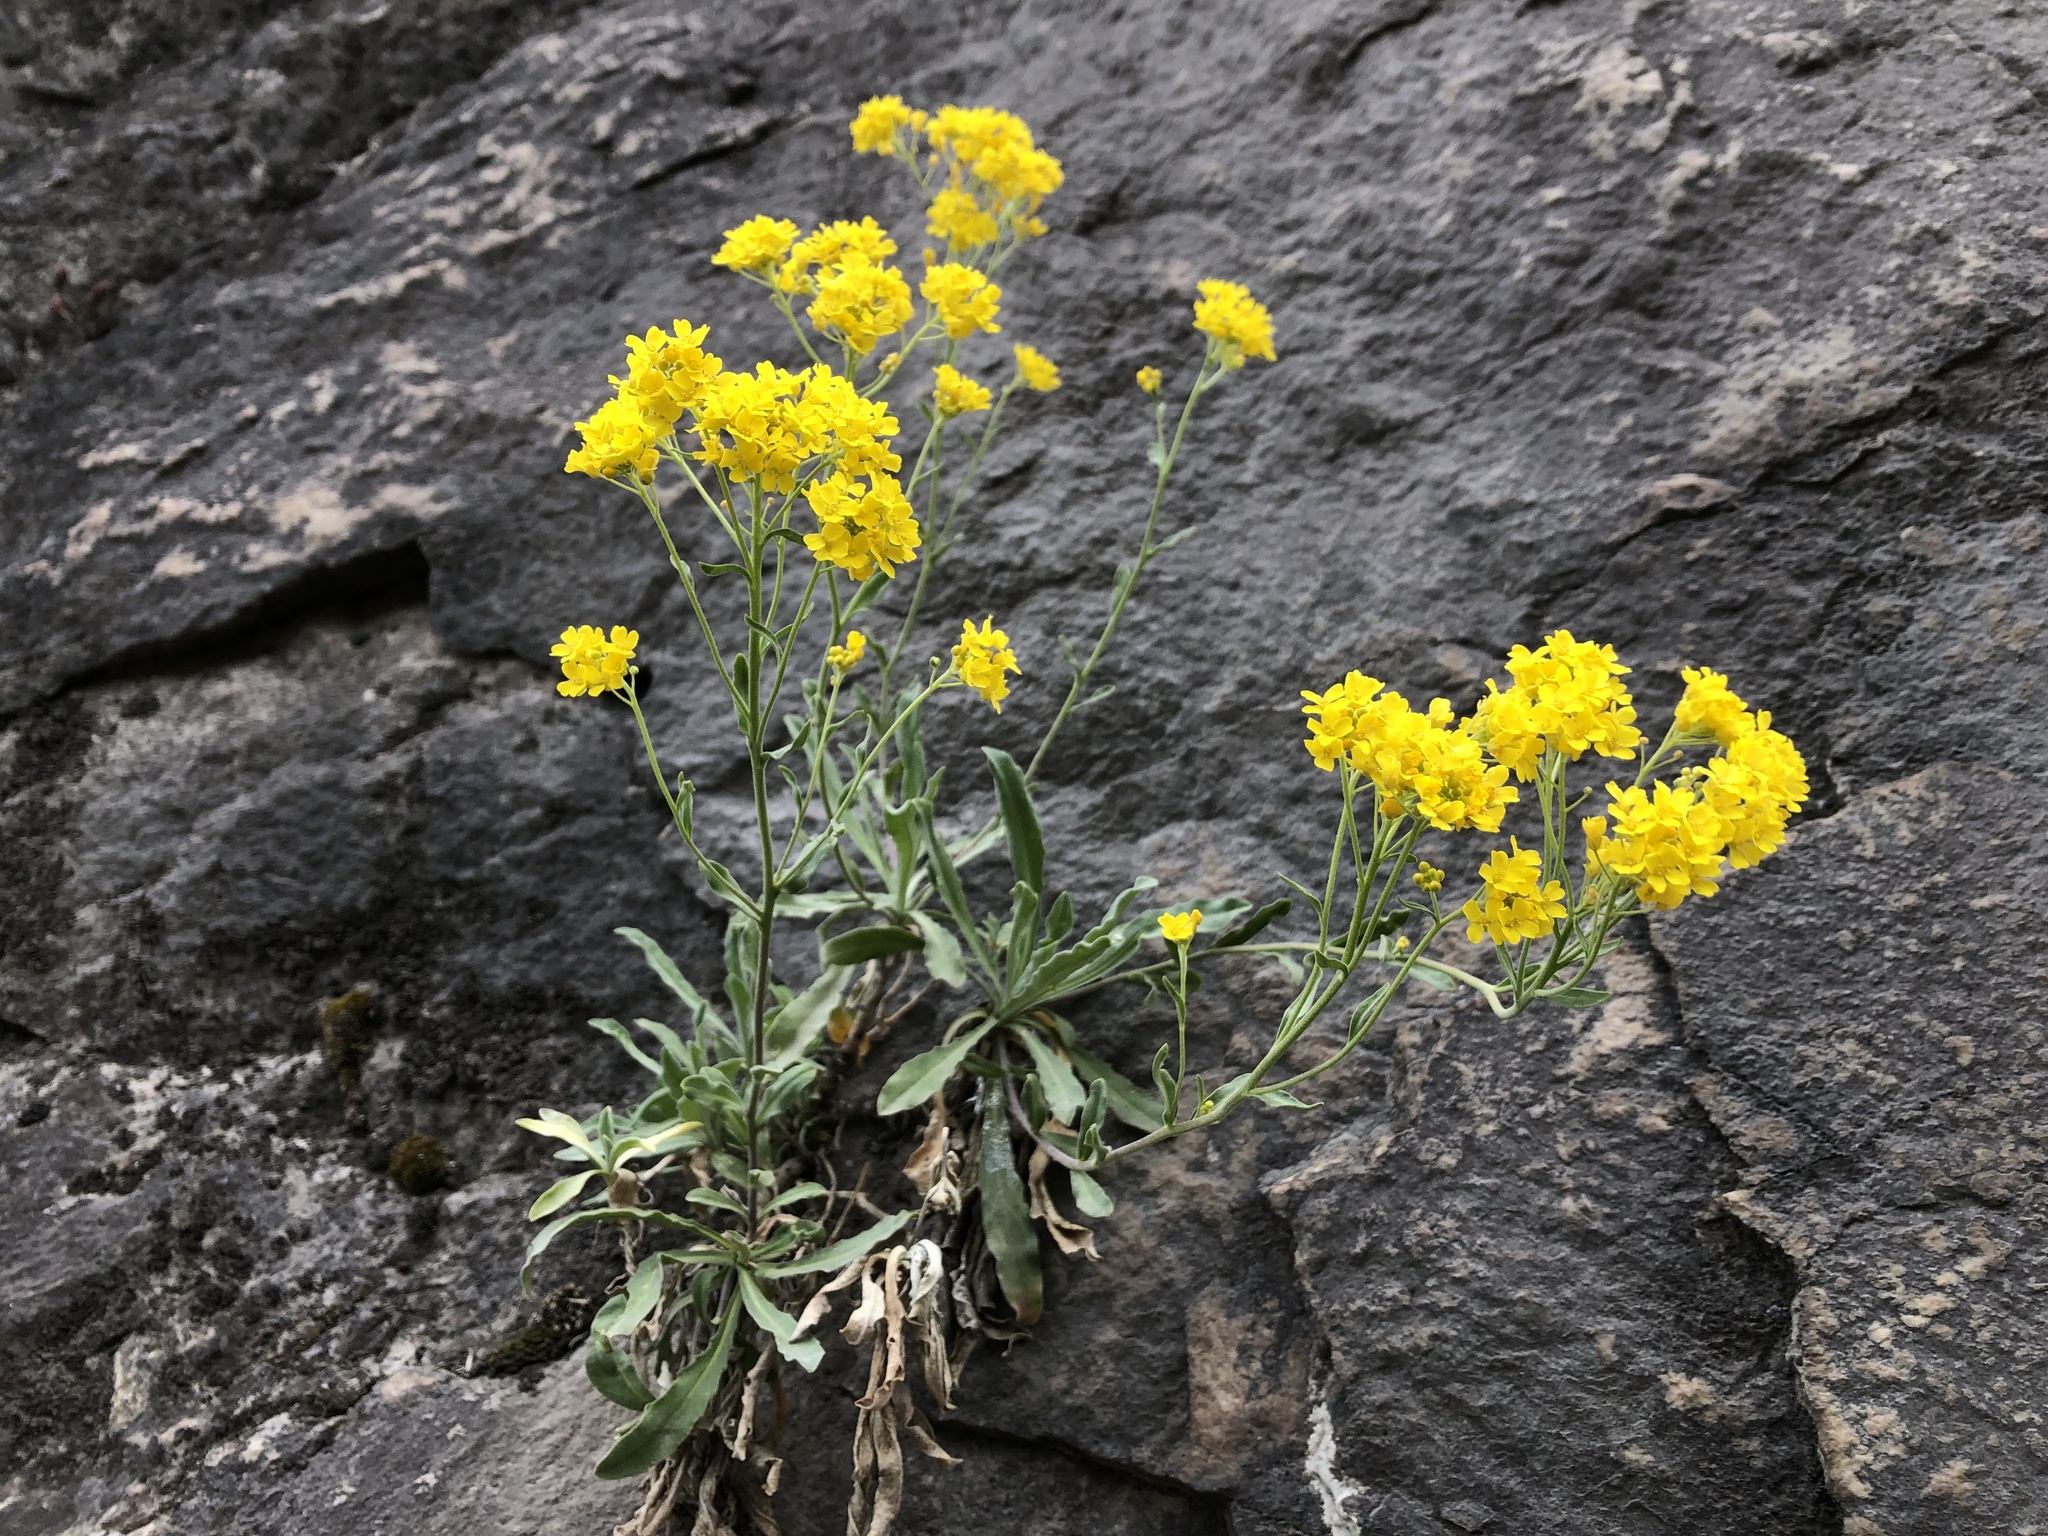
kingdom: Plantae
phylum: Tracheophyta
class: Magnoliopsida
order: Brassicales
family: Brassicaceae
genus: Aurinia
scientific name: Aurinia saxatilis
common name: Golden-tuft alyssum
